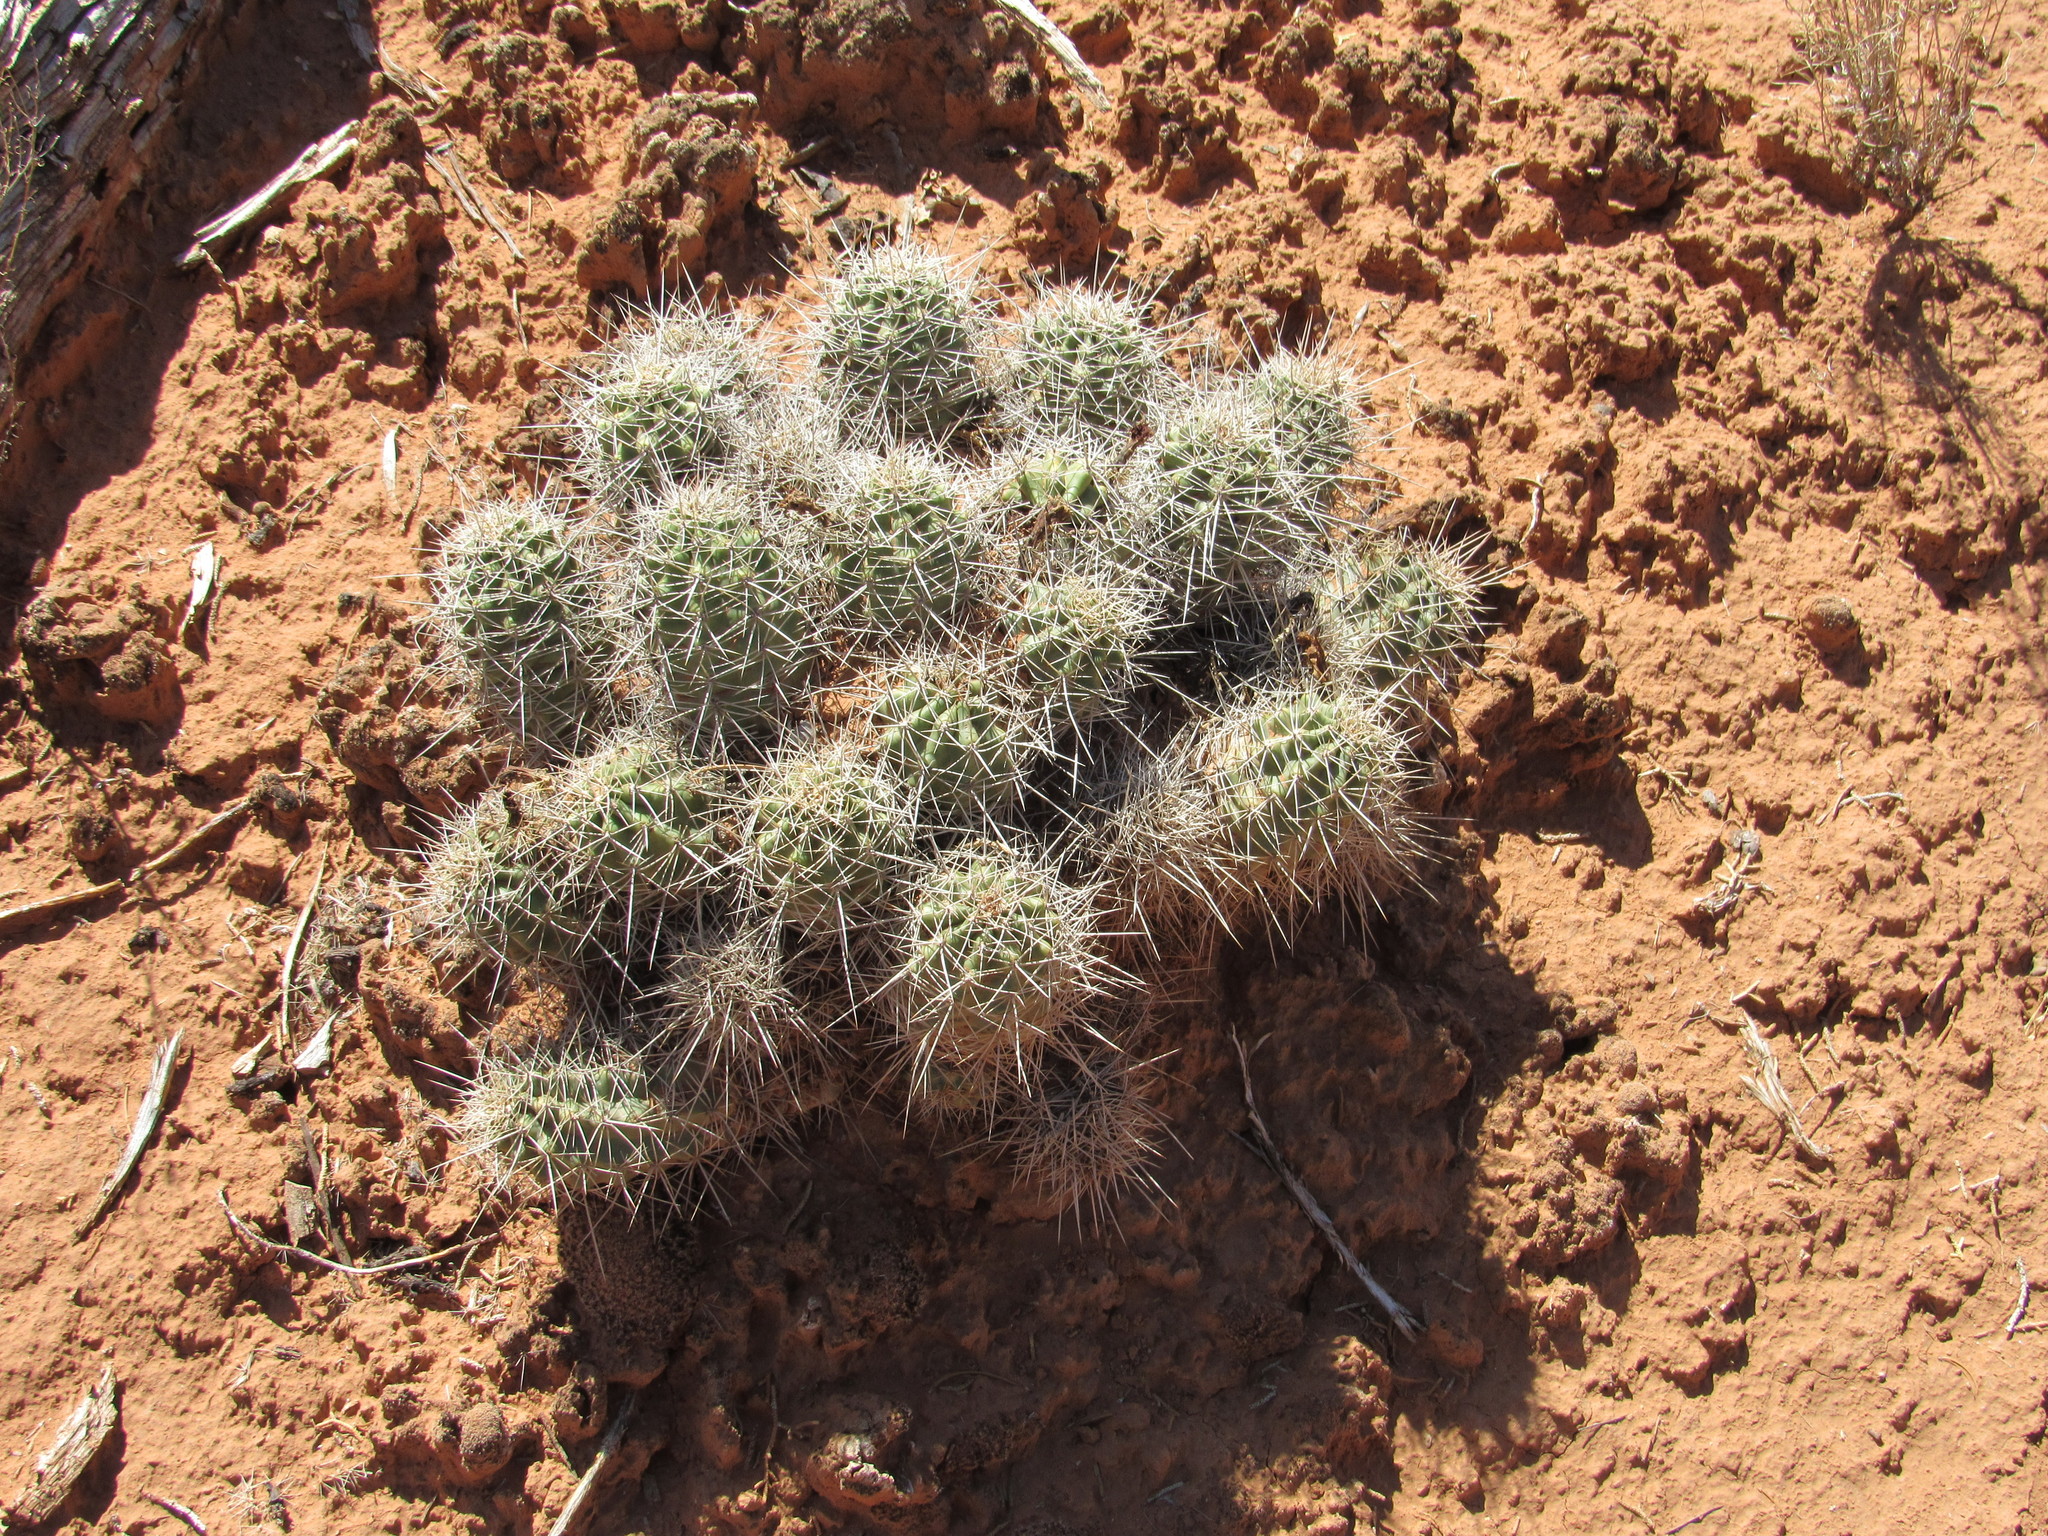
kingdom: Plantae
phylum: Tracheophyta
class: Magnoliopsida
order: Caryophyllales
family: Cactaceae
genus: Echinocereus
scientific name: Echinocereus triglochidiatus
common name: Claretcup hedgehog
